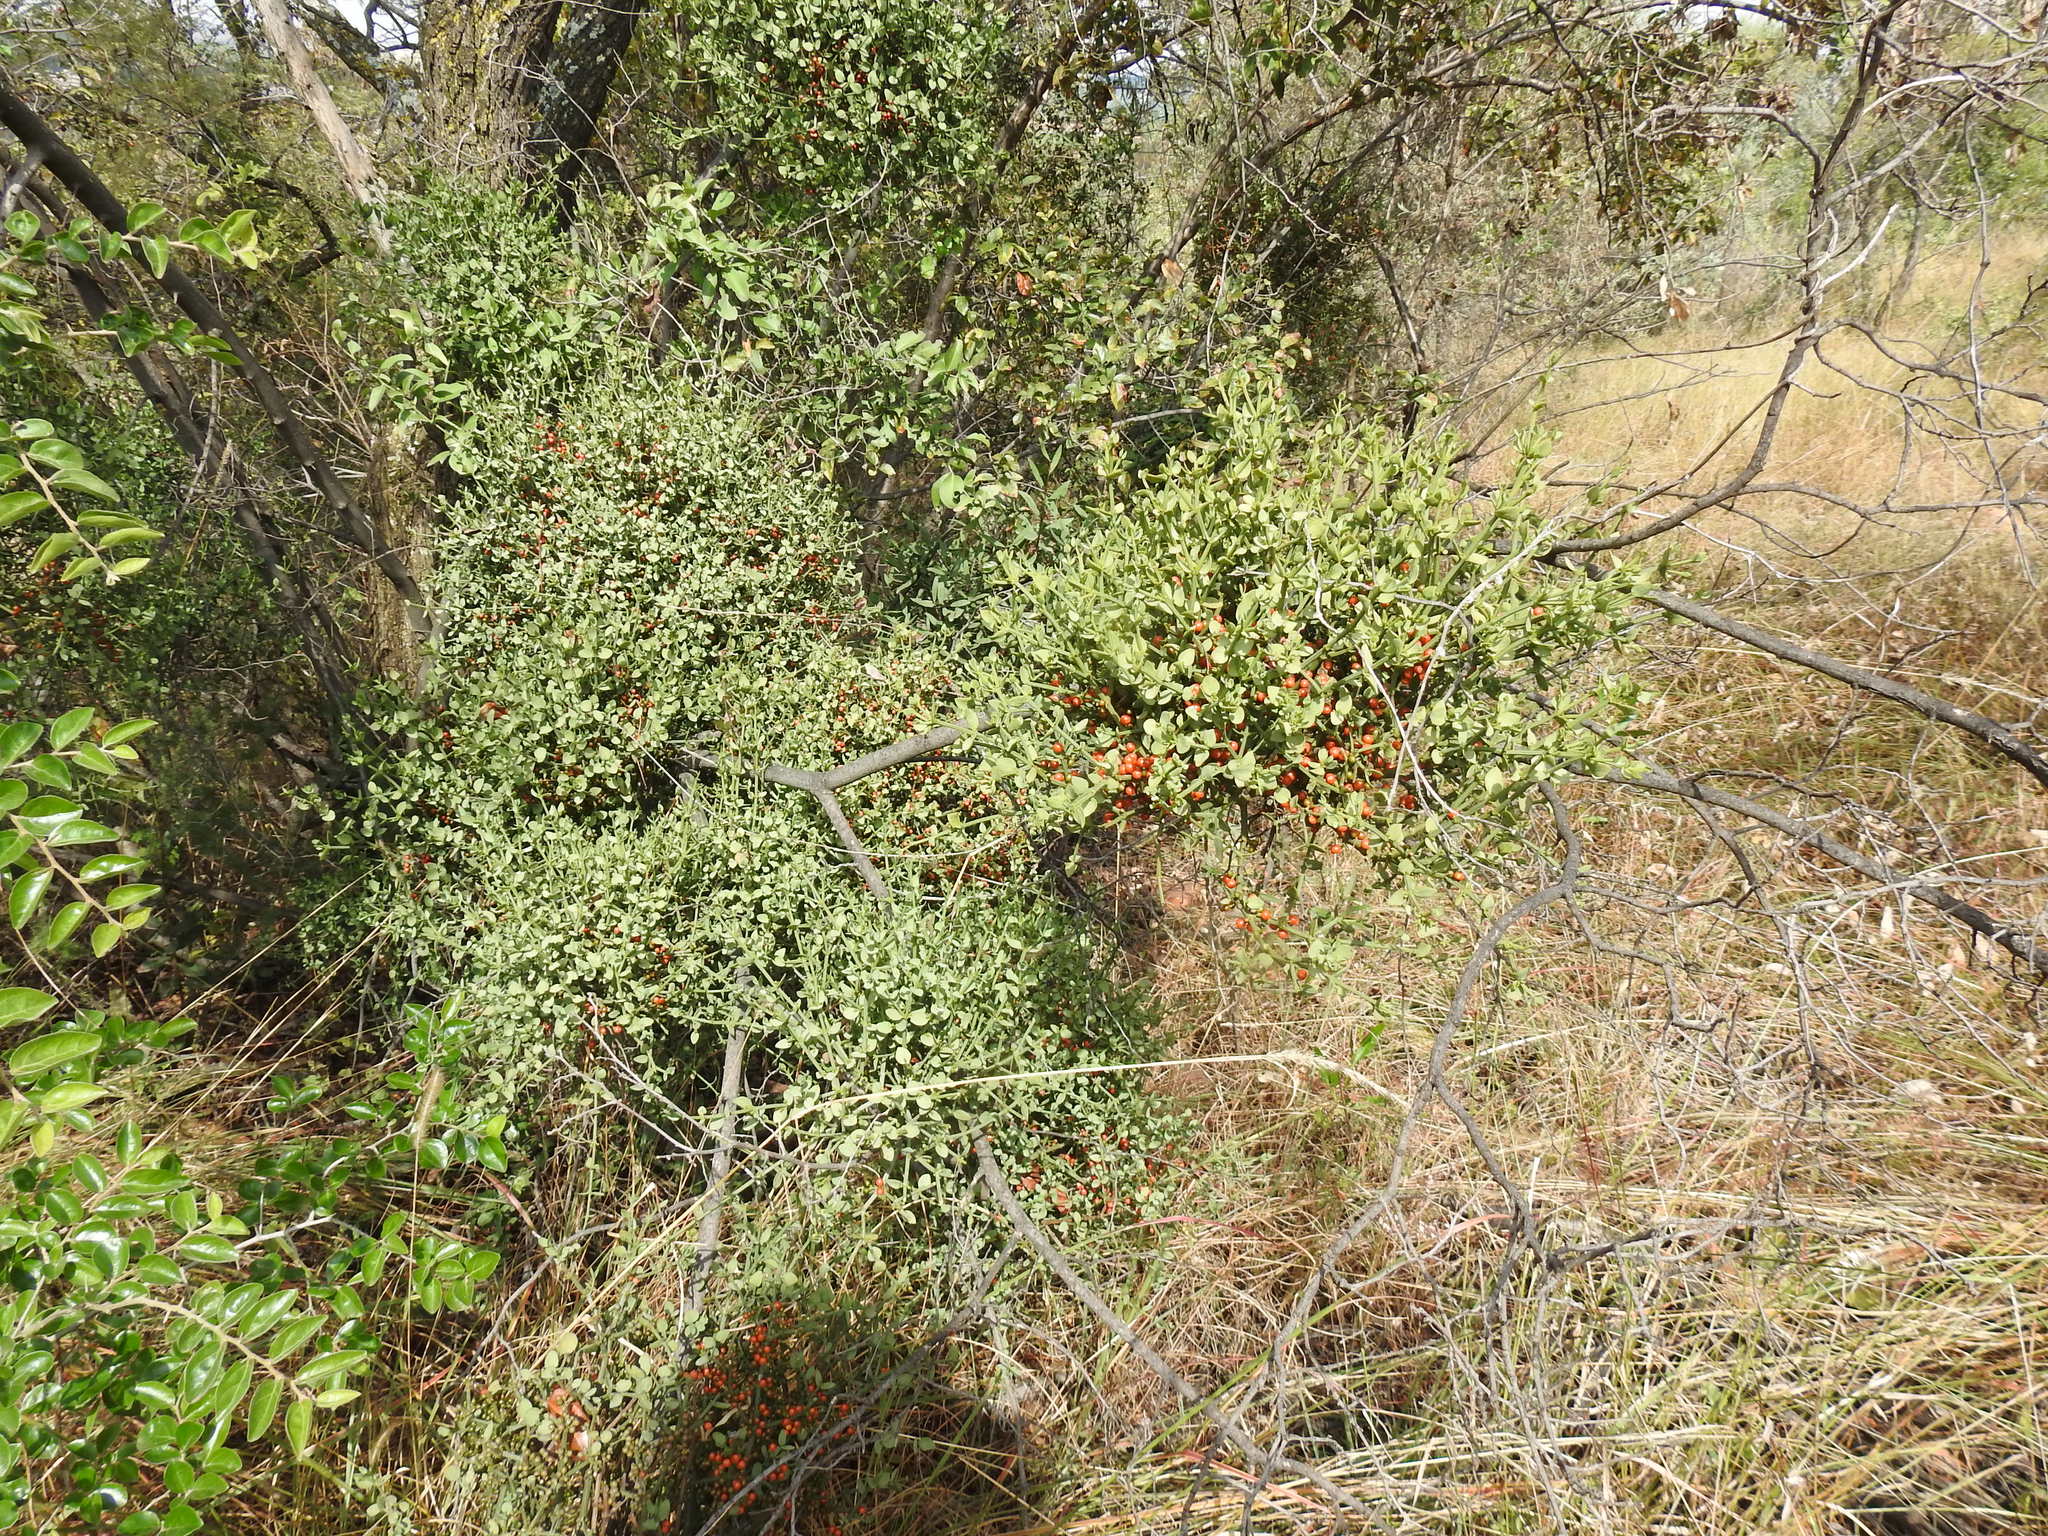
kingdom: Plantae
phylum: Tracheophyta
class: Magnoliopsida
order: Santalales
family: Viscaceae
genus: Viscum
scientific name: Viscum rotundifolium
